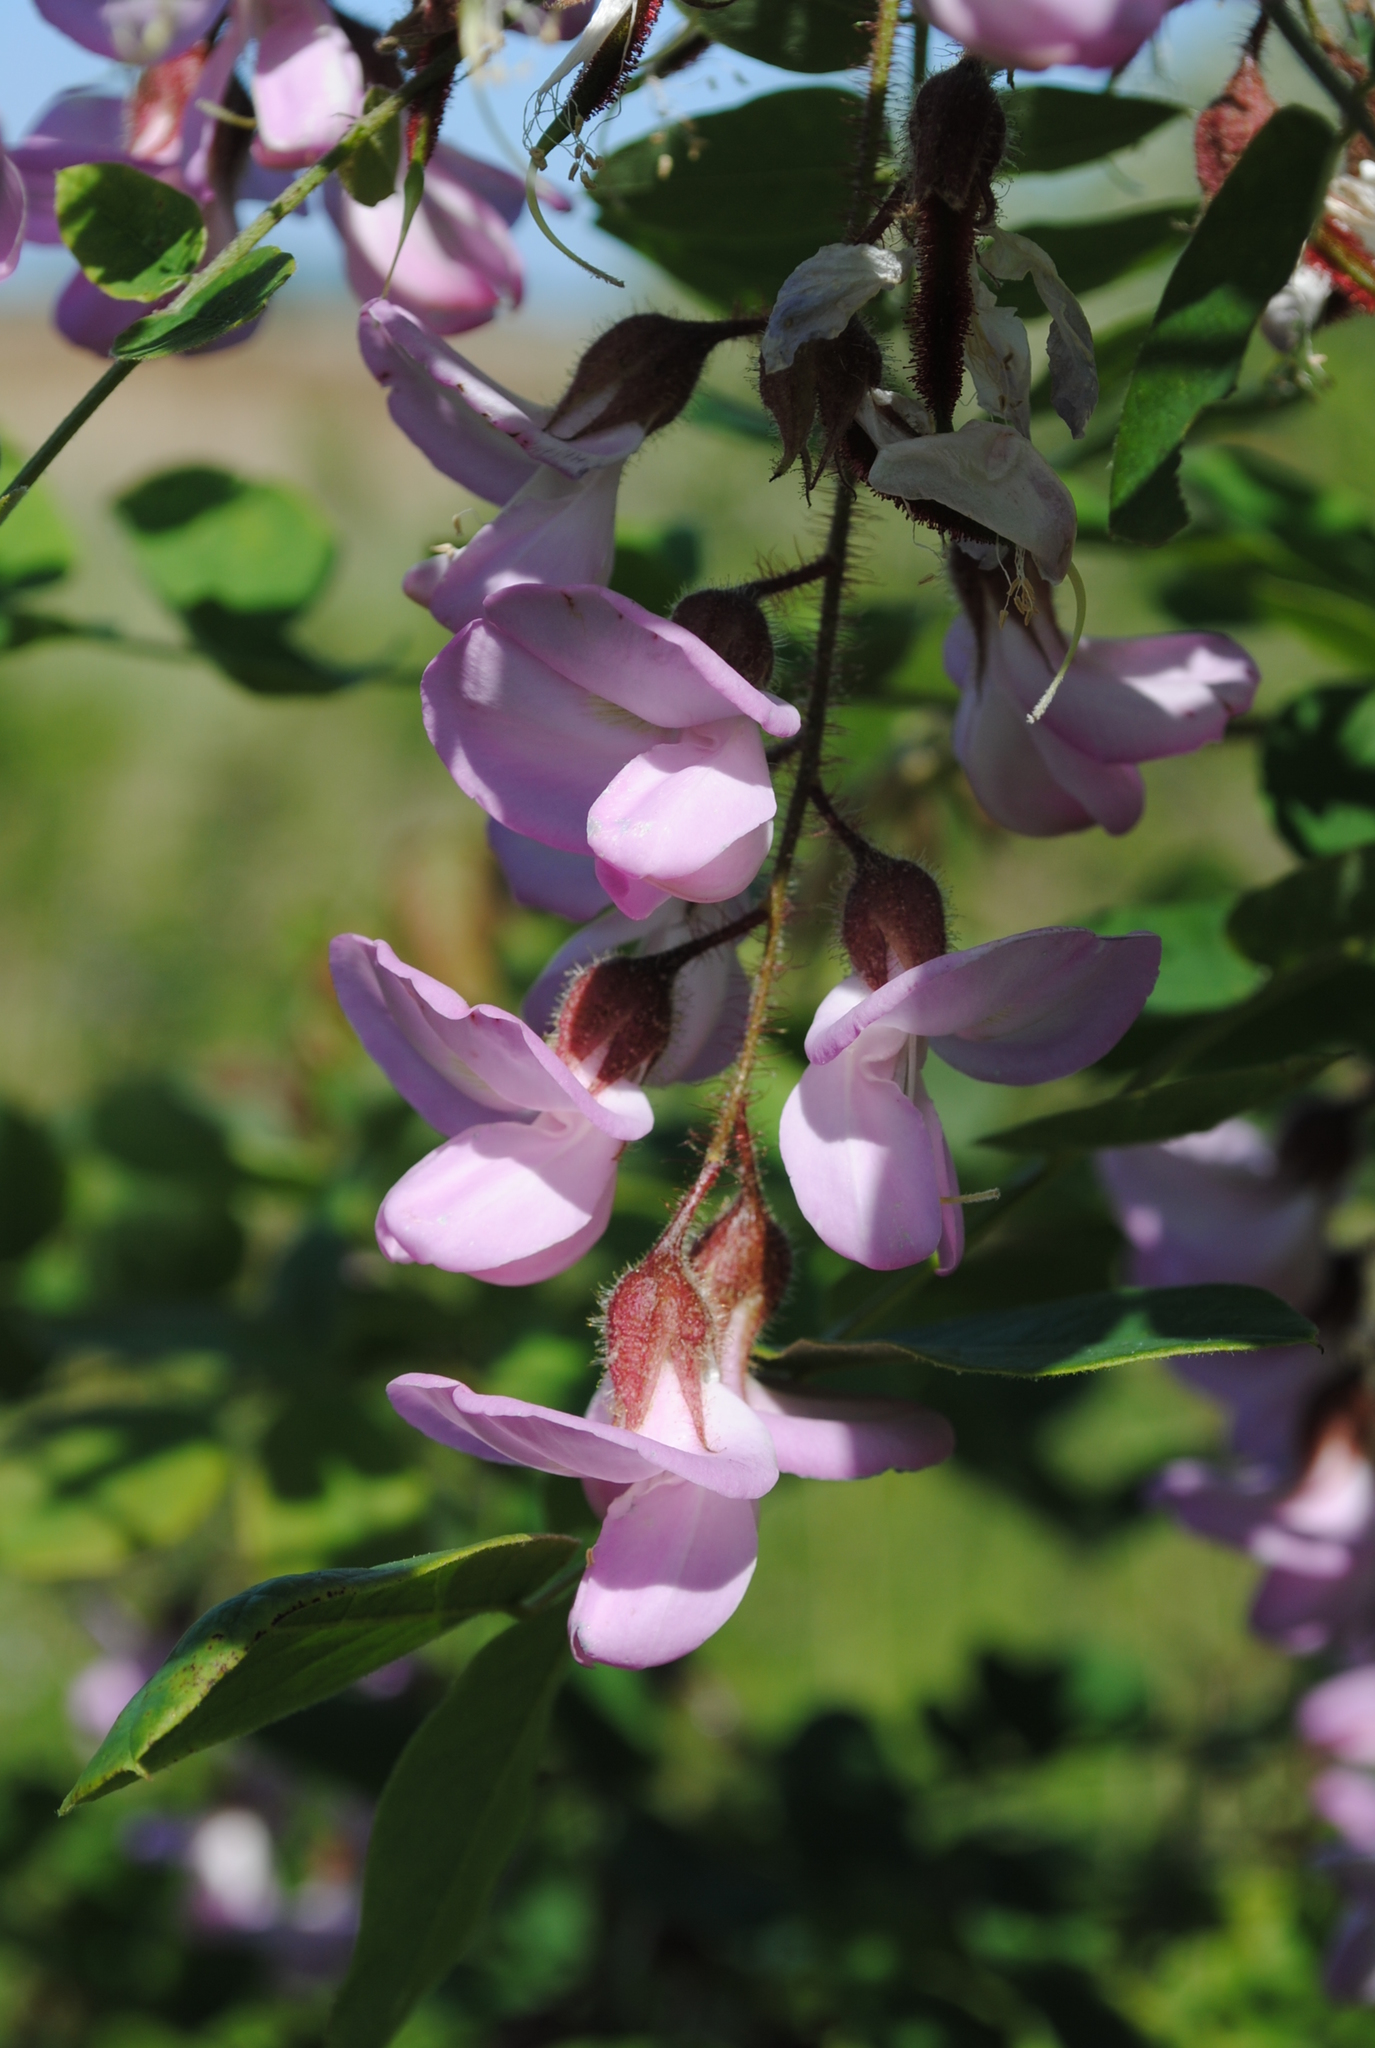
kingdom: Plantae
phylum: Tracheophyta
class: Magnoliopsida
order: Fabales
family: Fabaceae
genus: Robinia
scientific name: Robinia hispida
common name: Bristly locust
